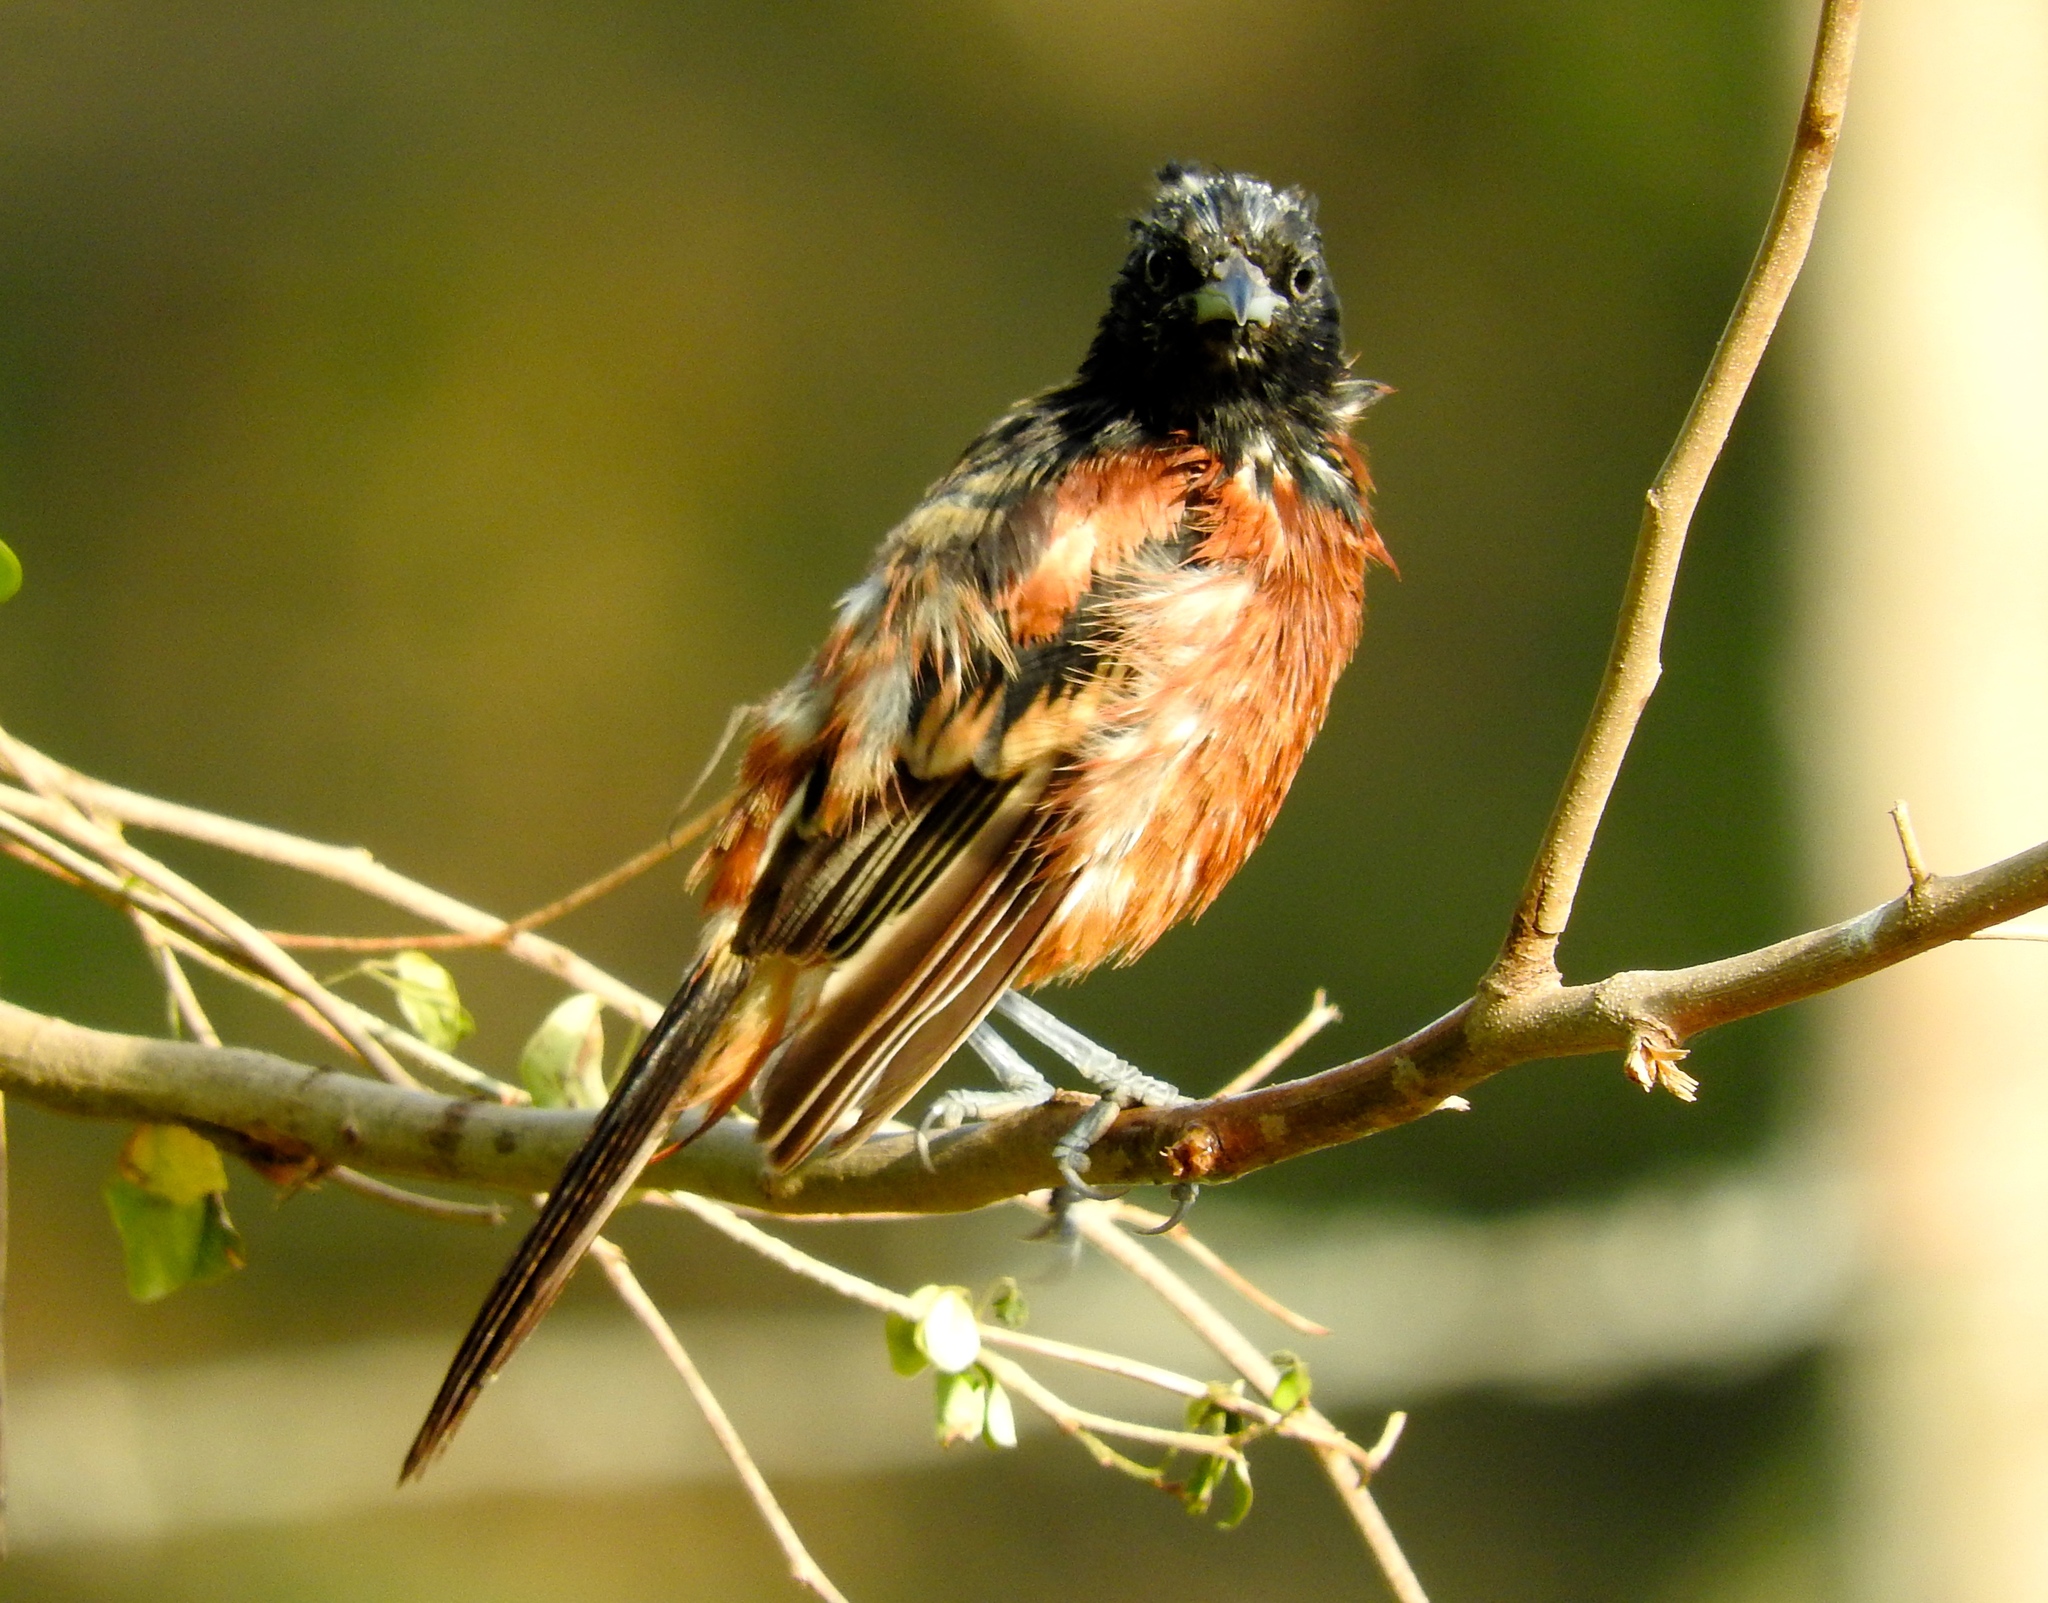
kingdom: Animalia
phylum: Chordata
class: Aves
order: Passeriformes
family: Icteridae
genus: Icterus
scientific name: Icterus spurius
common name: Orchard oriole
